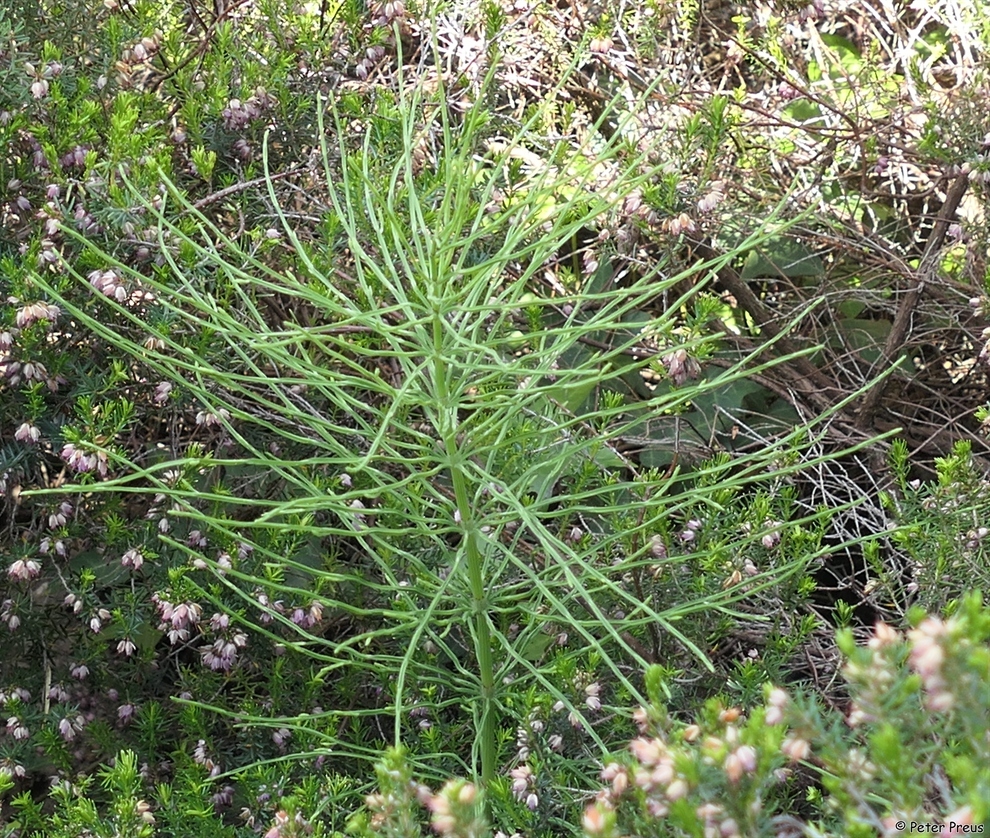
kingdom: Plantae
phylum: Tracheophyta
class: Polypodiopsida
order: Equisetales
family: Equisetaceae
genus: Equisetum
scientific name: Equisetum arvense
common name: Field horsetail
